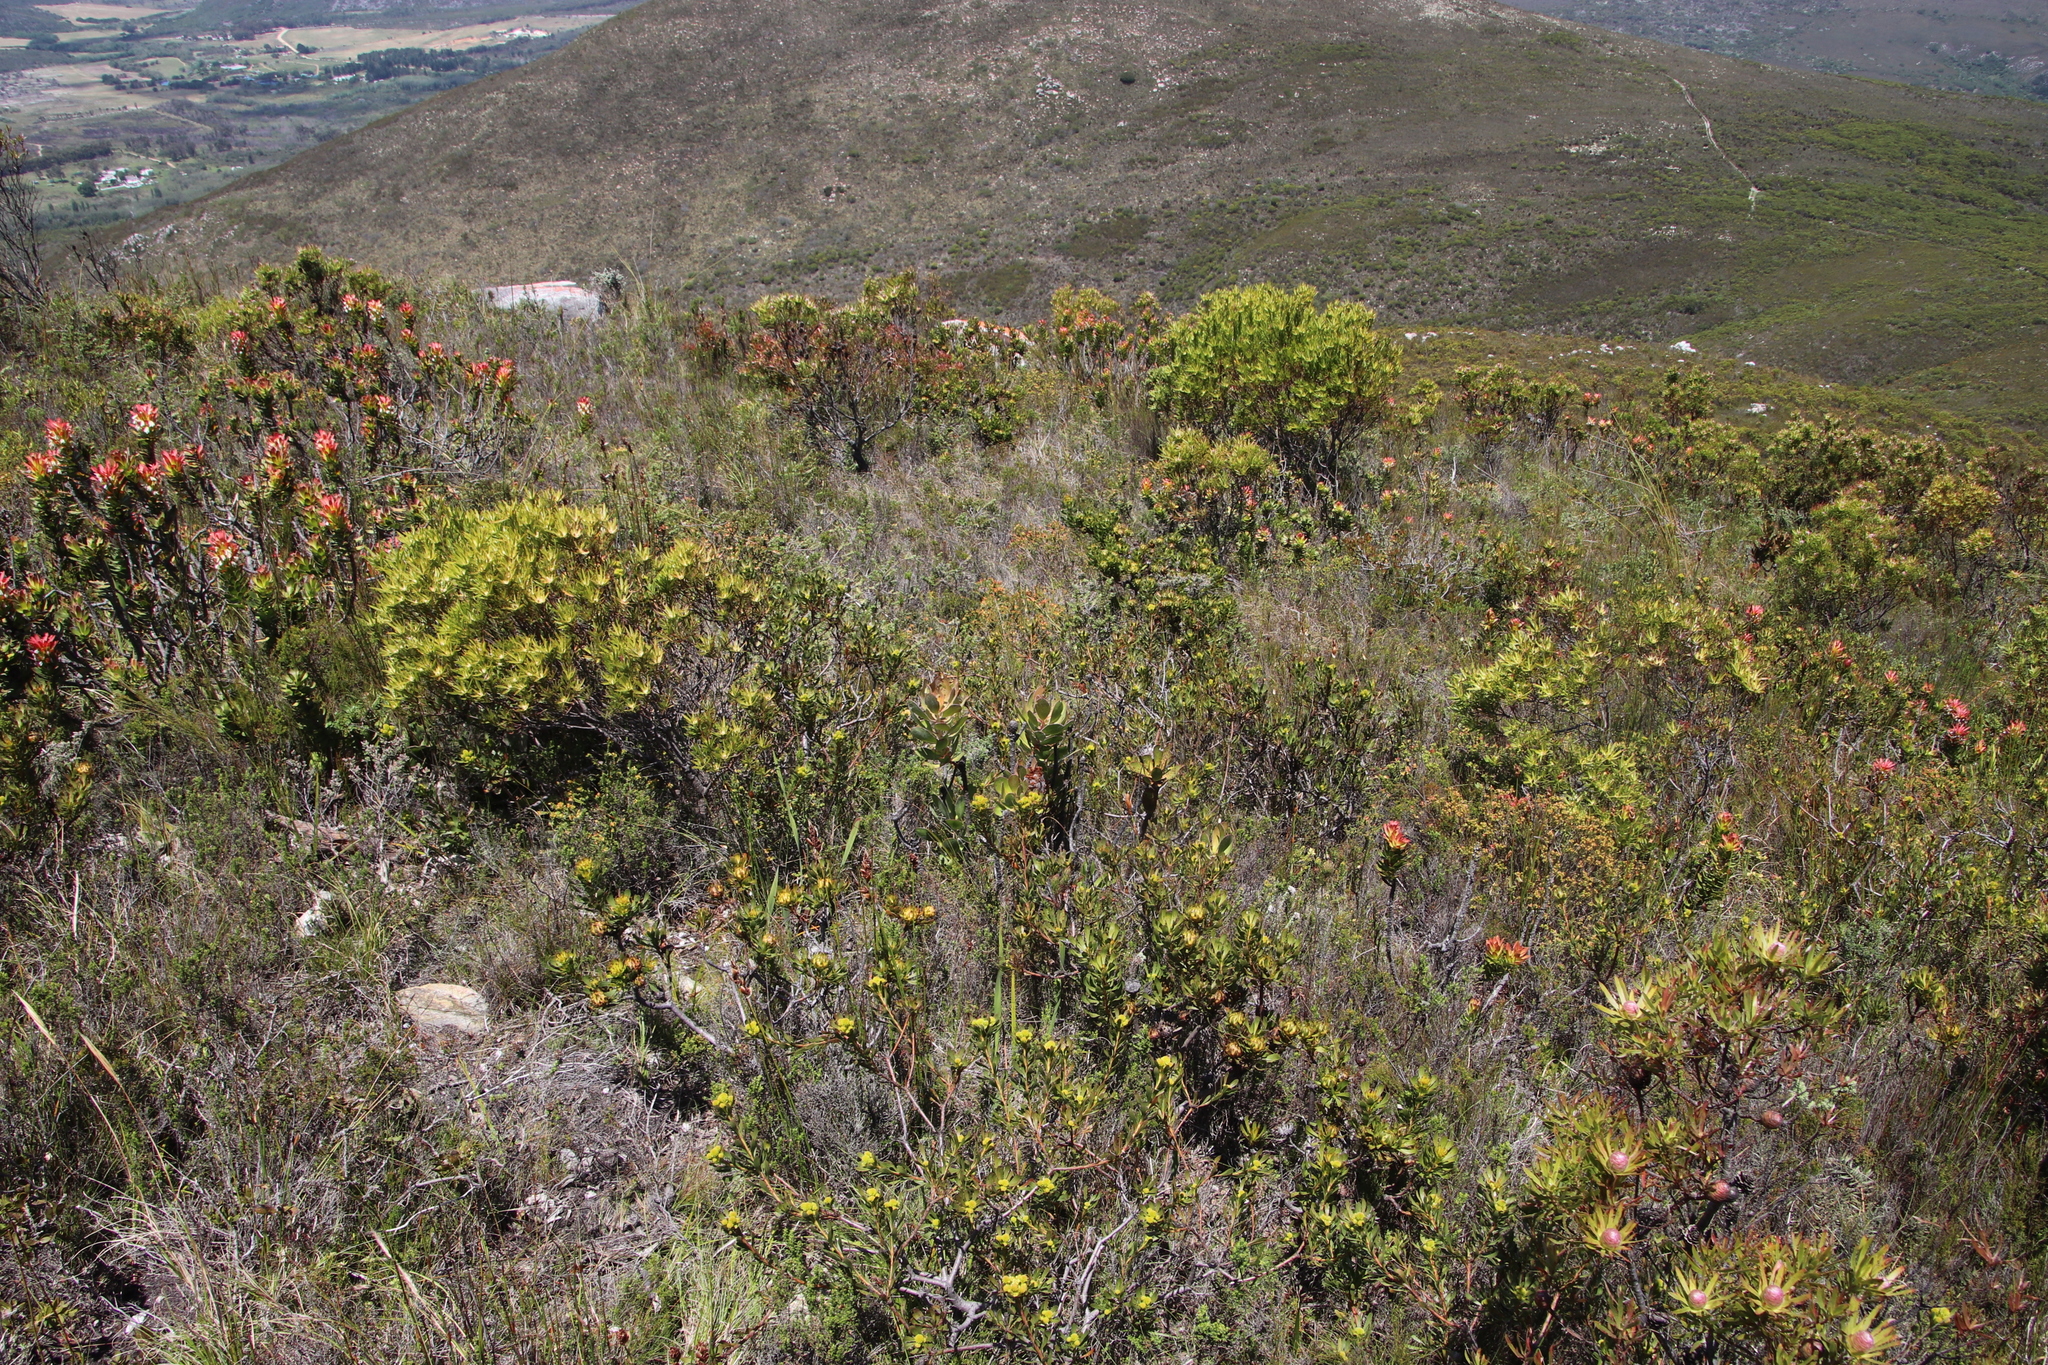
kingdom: Plantae
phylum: Tracheophyta
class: Magnoliopsida
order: Proteales
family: Proteaceae
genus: Protea
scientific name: Protea speciosa
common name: Brown-beard sugarbush
